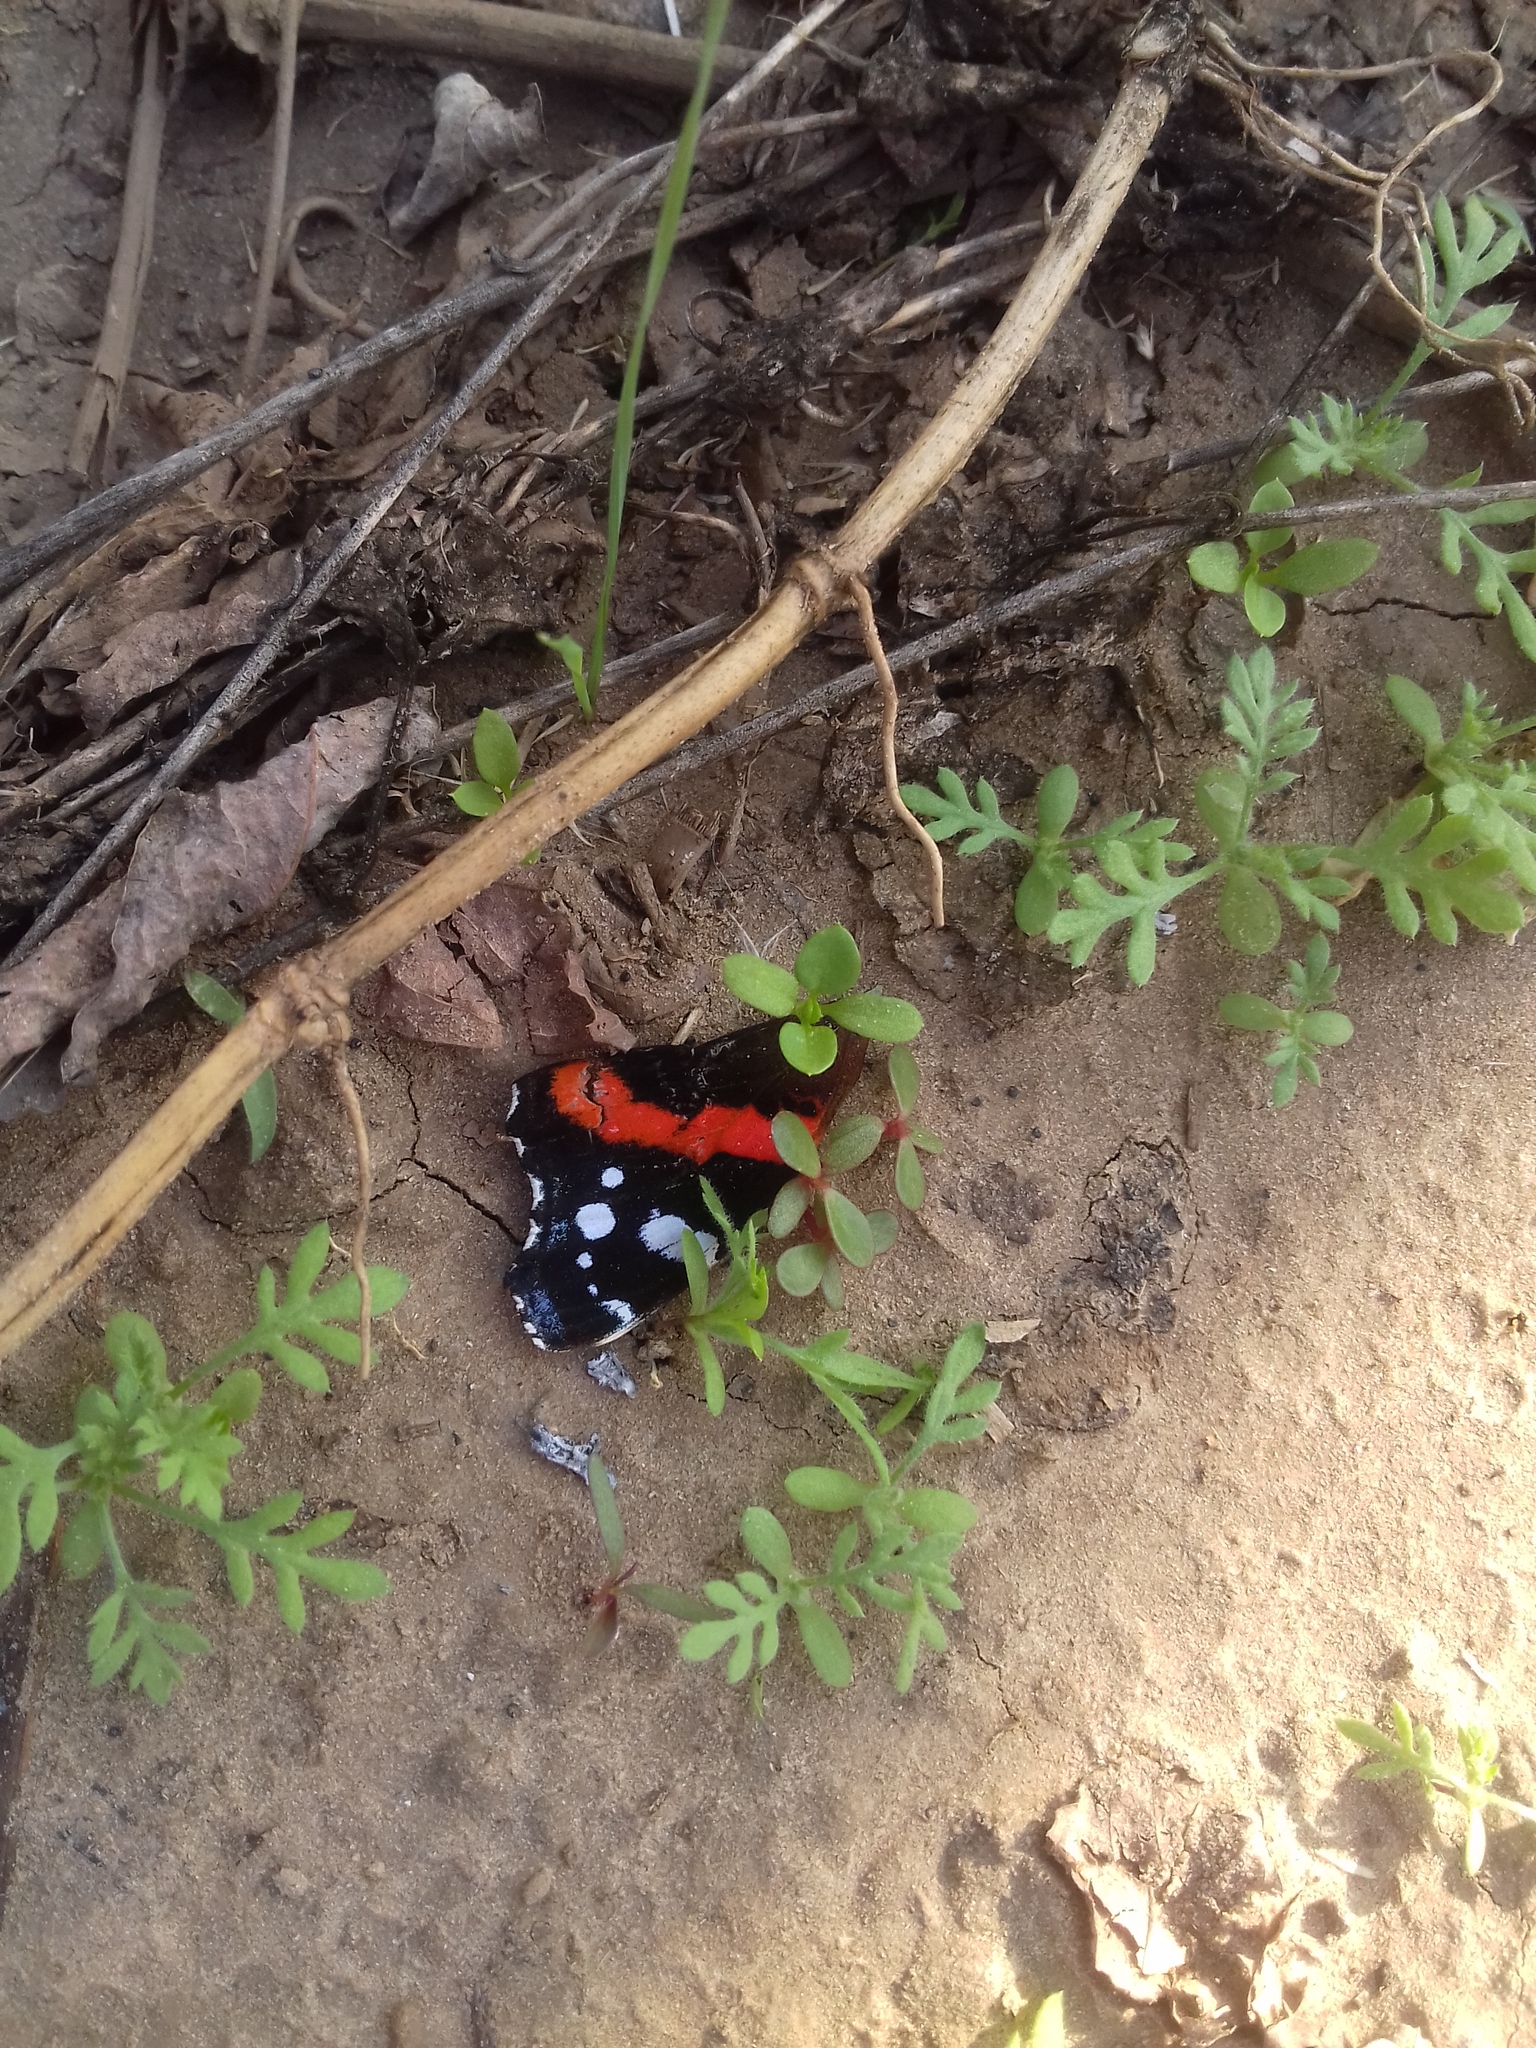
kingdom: Animalia
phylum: Arthropoda
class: Insecta
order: Lepidoptera
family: Nymphalidae
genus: Vanessa
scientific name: Vanessa atalanta
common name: Red admiral
